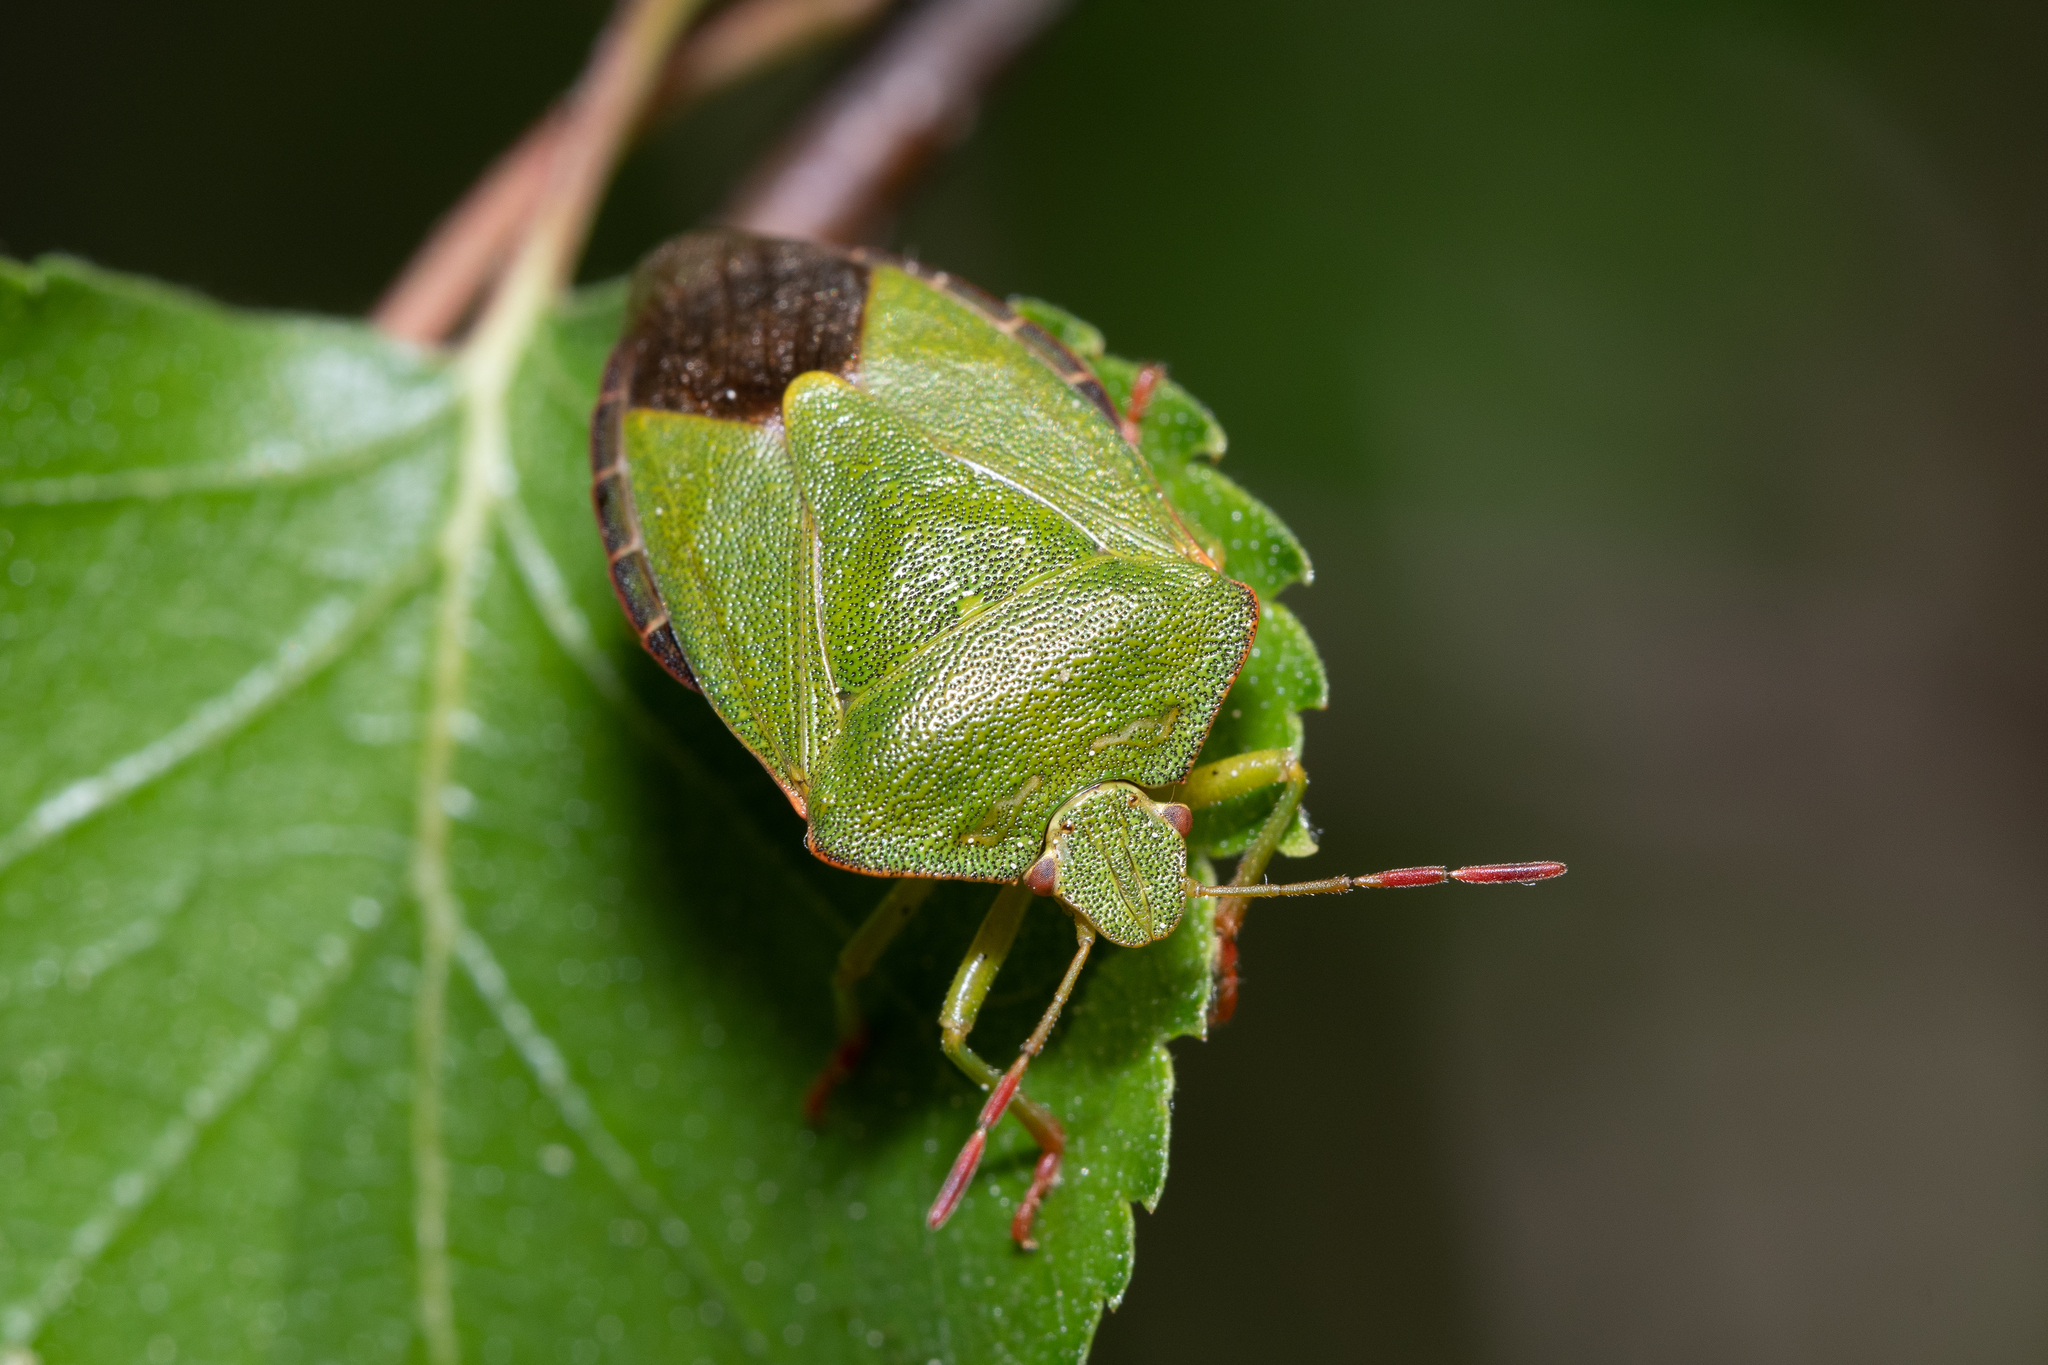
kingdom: Animalia
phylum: Arthropoda
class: Insecta
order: Hemiptera
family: Pentatomidae
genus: Palomena
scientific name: Palomena prasina
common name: Green shieldbug
